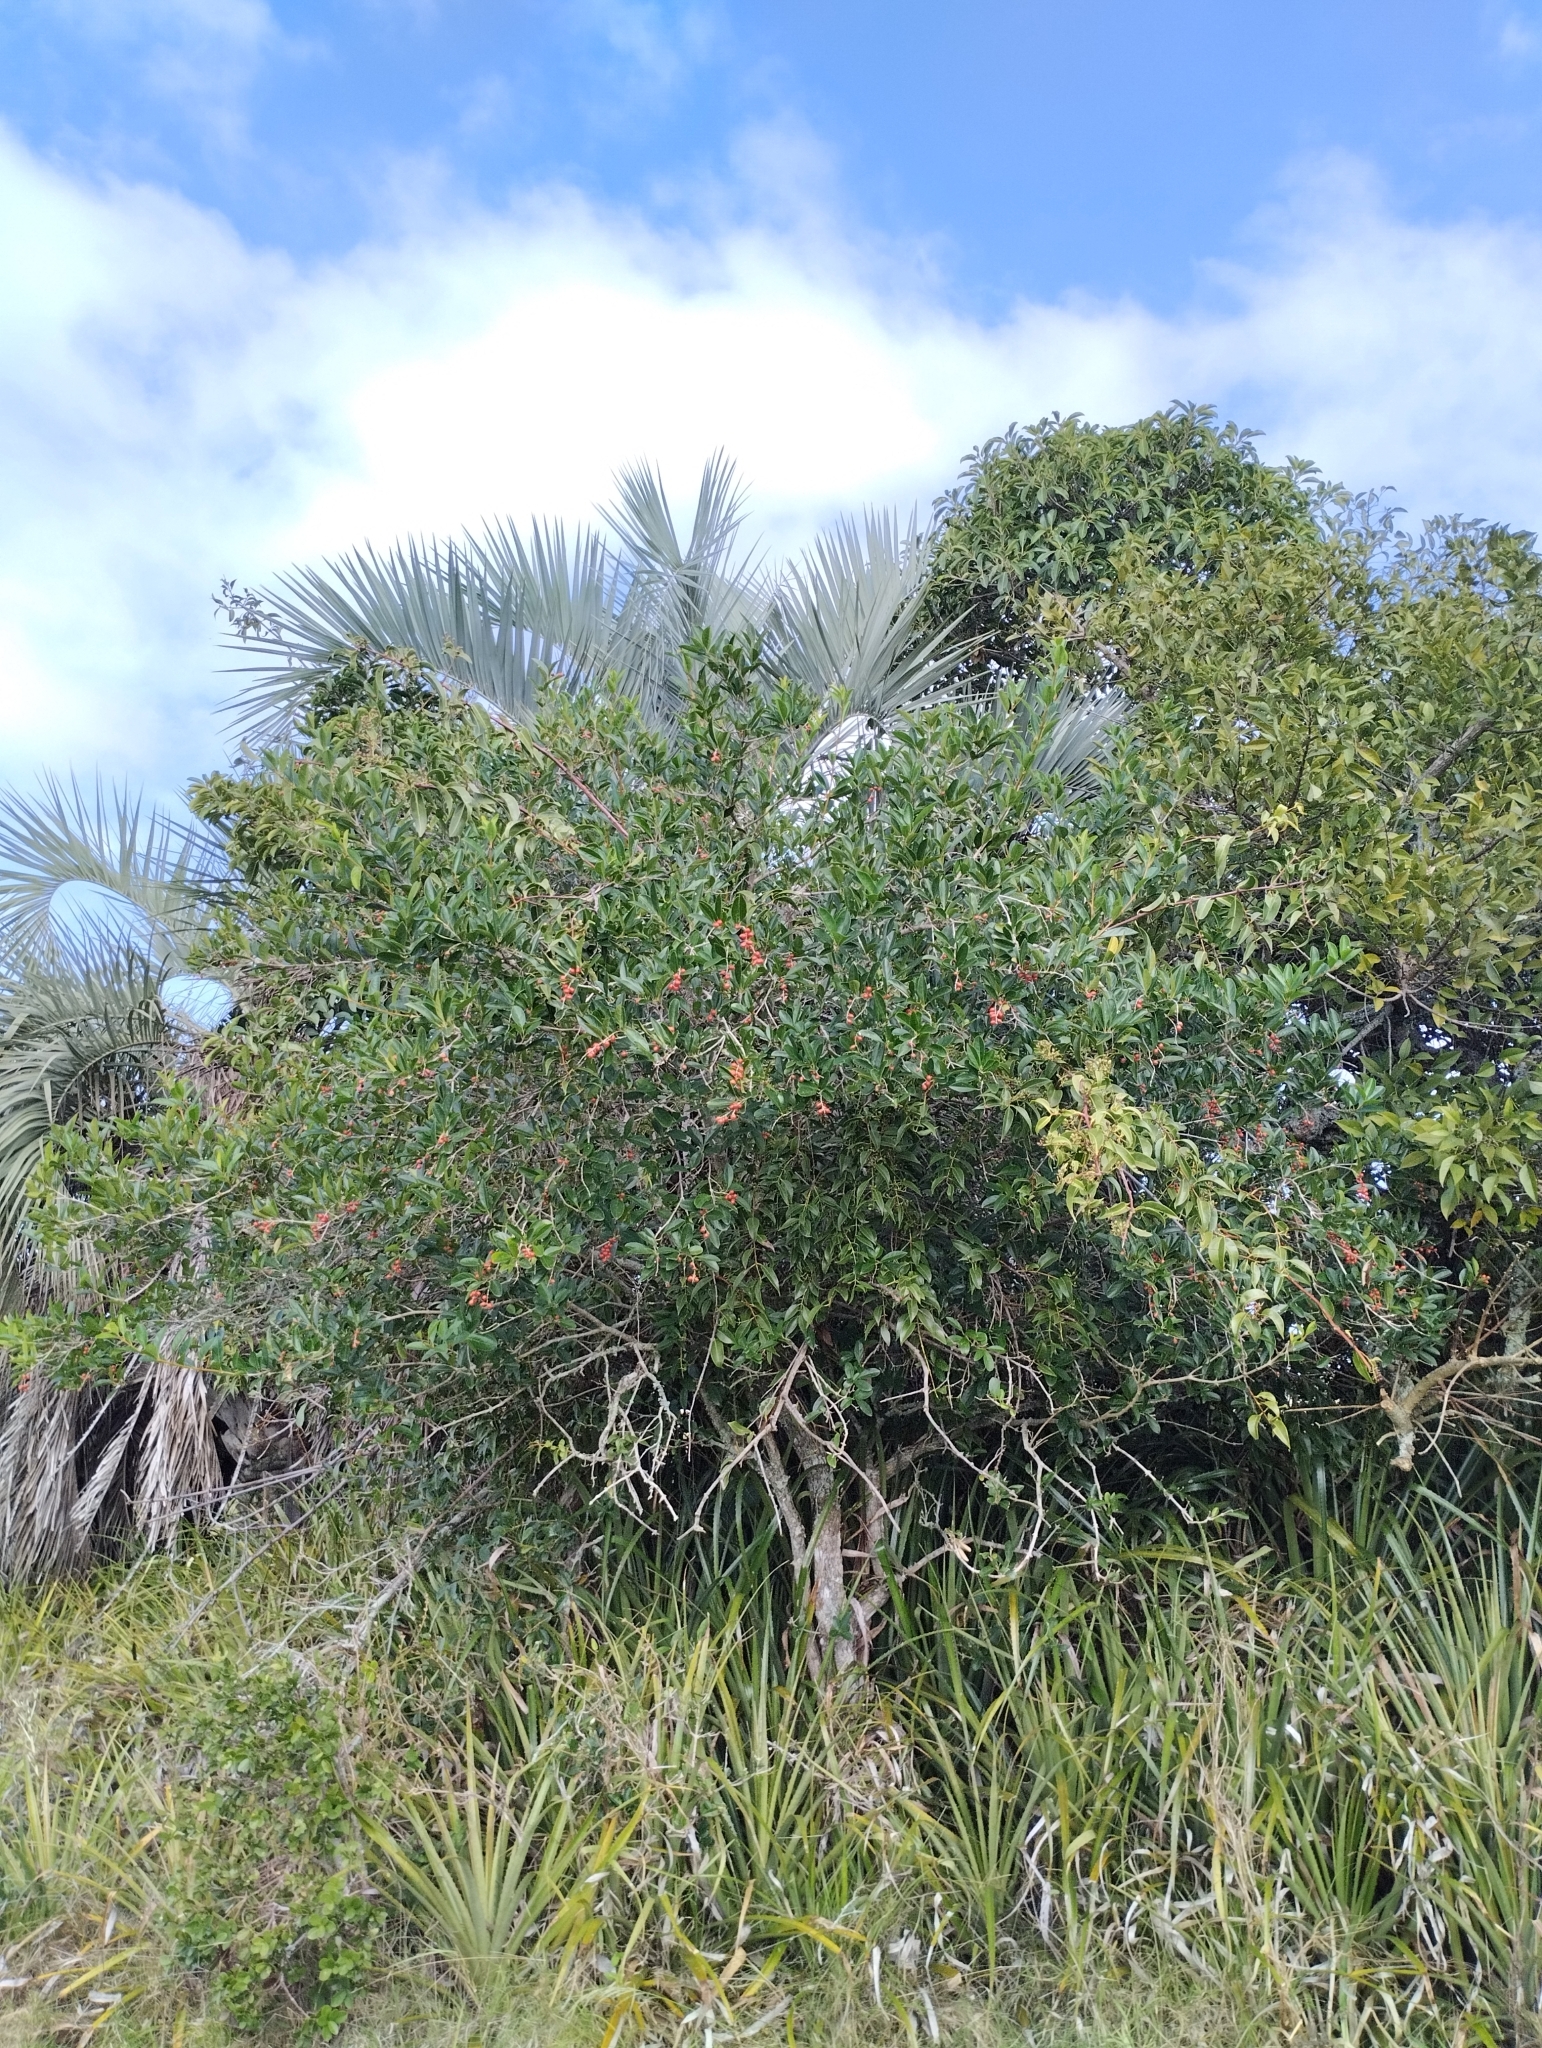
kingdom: Plantae
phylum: Tracheophyta
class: Magnoliopsida
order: Lamiales
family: Verbenaceae
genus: Citharexylum
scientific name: Citharexylum montevidense
